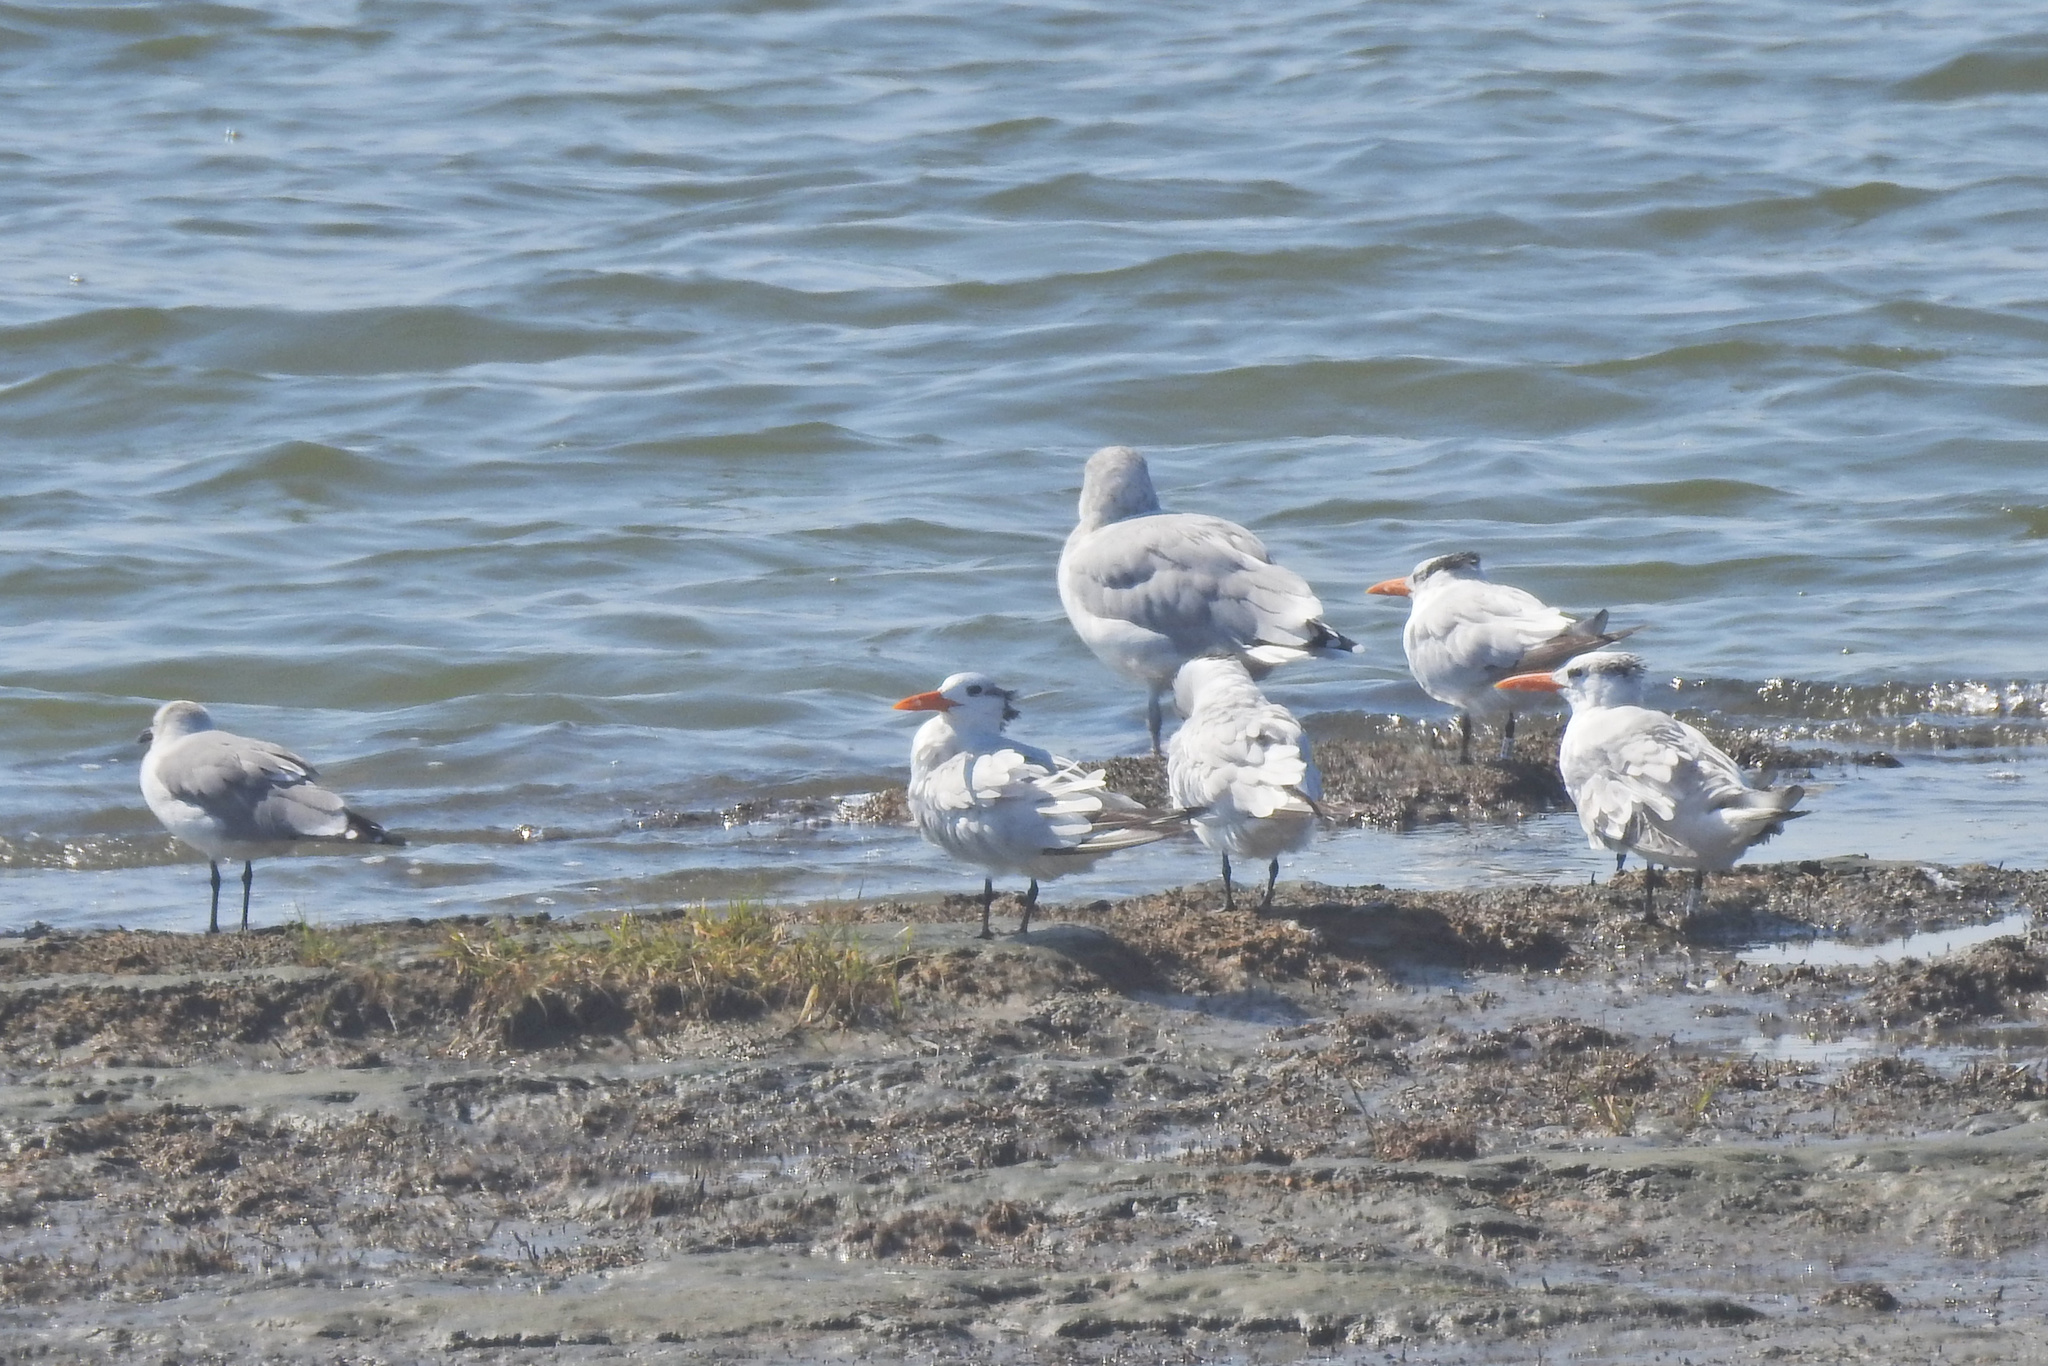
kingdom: Animalia
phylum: Chordata
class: Aves
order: Charadriiformes
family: Laridae
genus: Thalasseus
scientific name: Thalasseus maximus
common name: Royal tern
